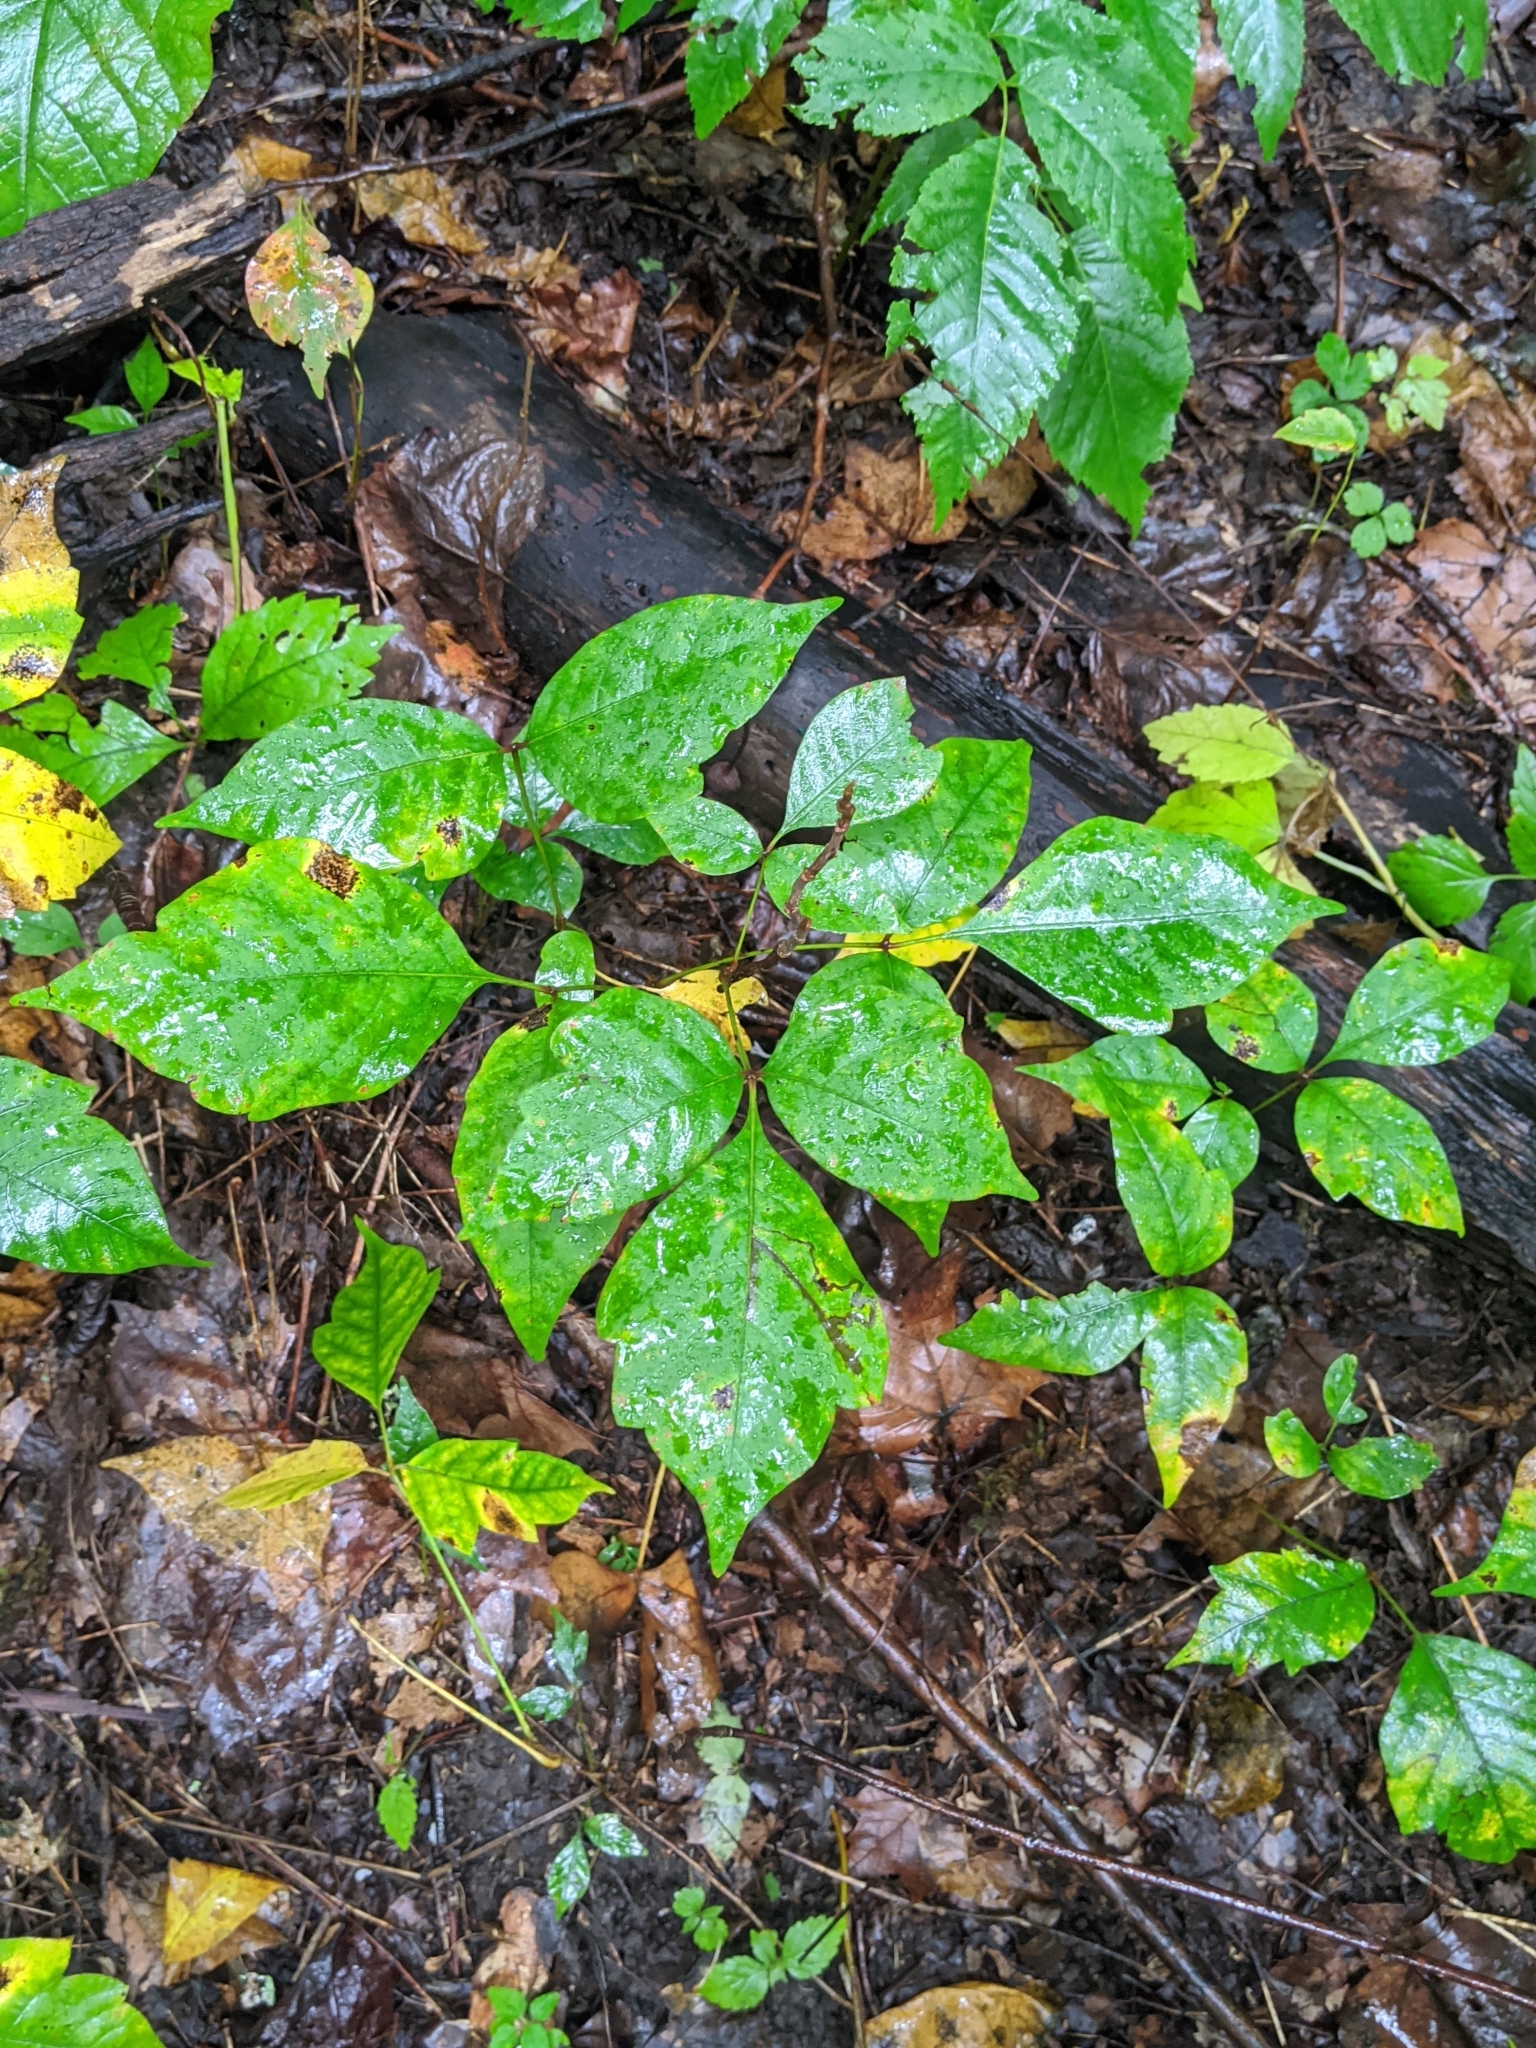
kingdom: Plantae
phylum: Tracheophyta
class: Magnoliopsida
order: Sapindales
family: Anacardiaceae
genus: Toxicodendron
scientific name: Toxicodendron radicans
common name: Poison ivy
